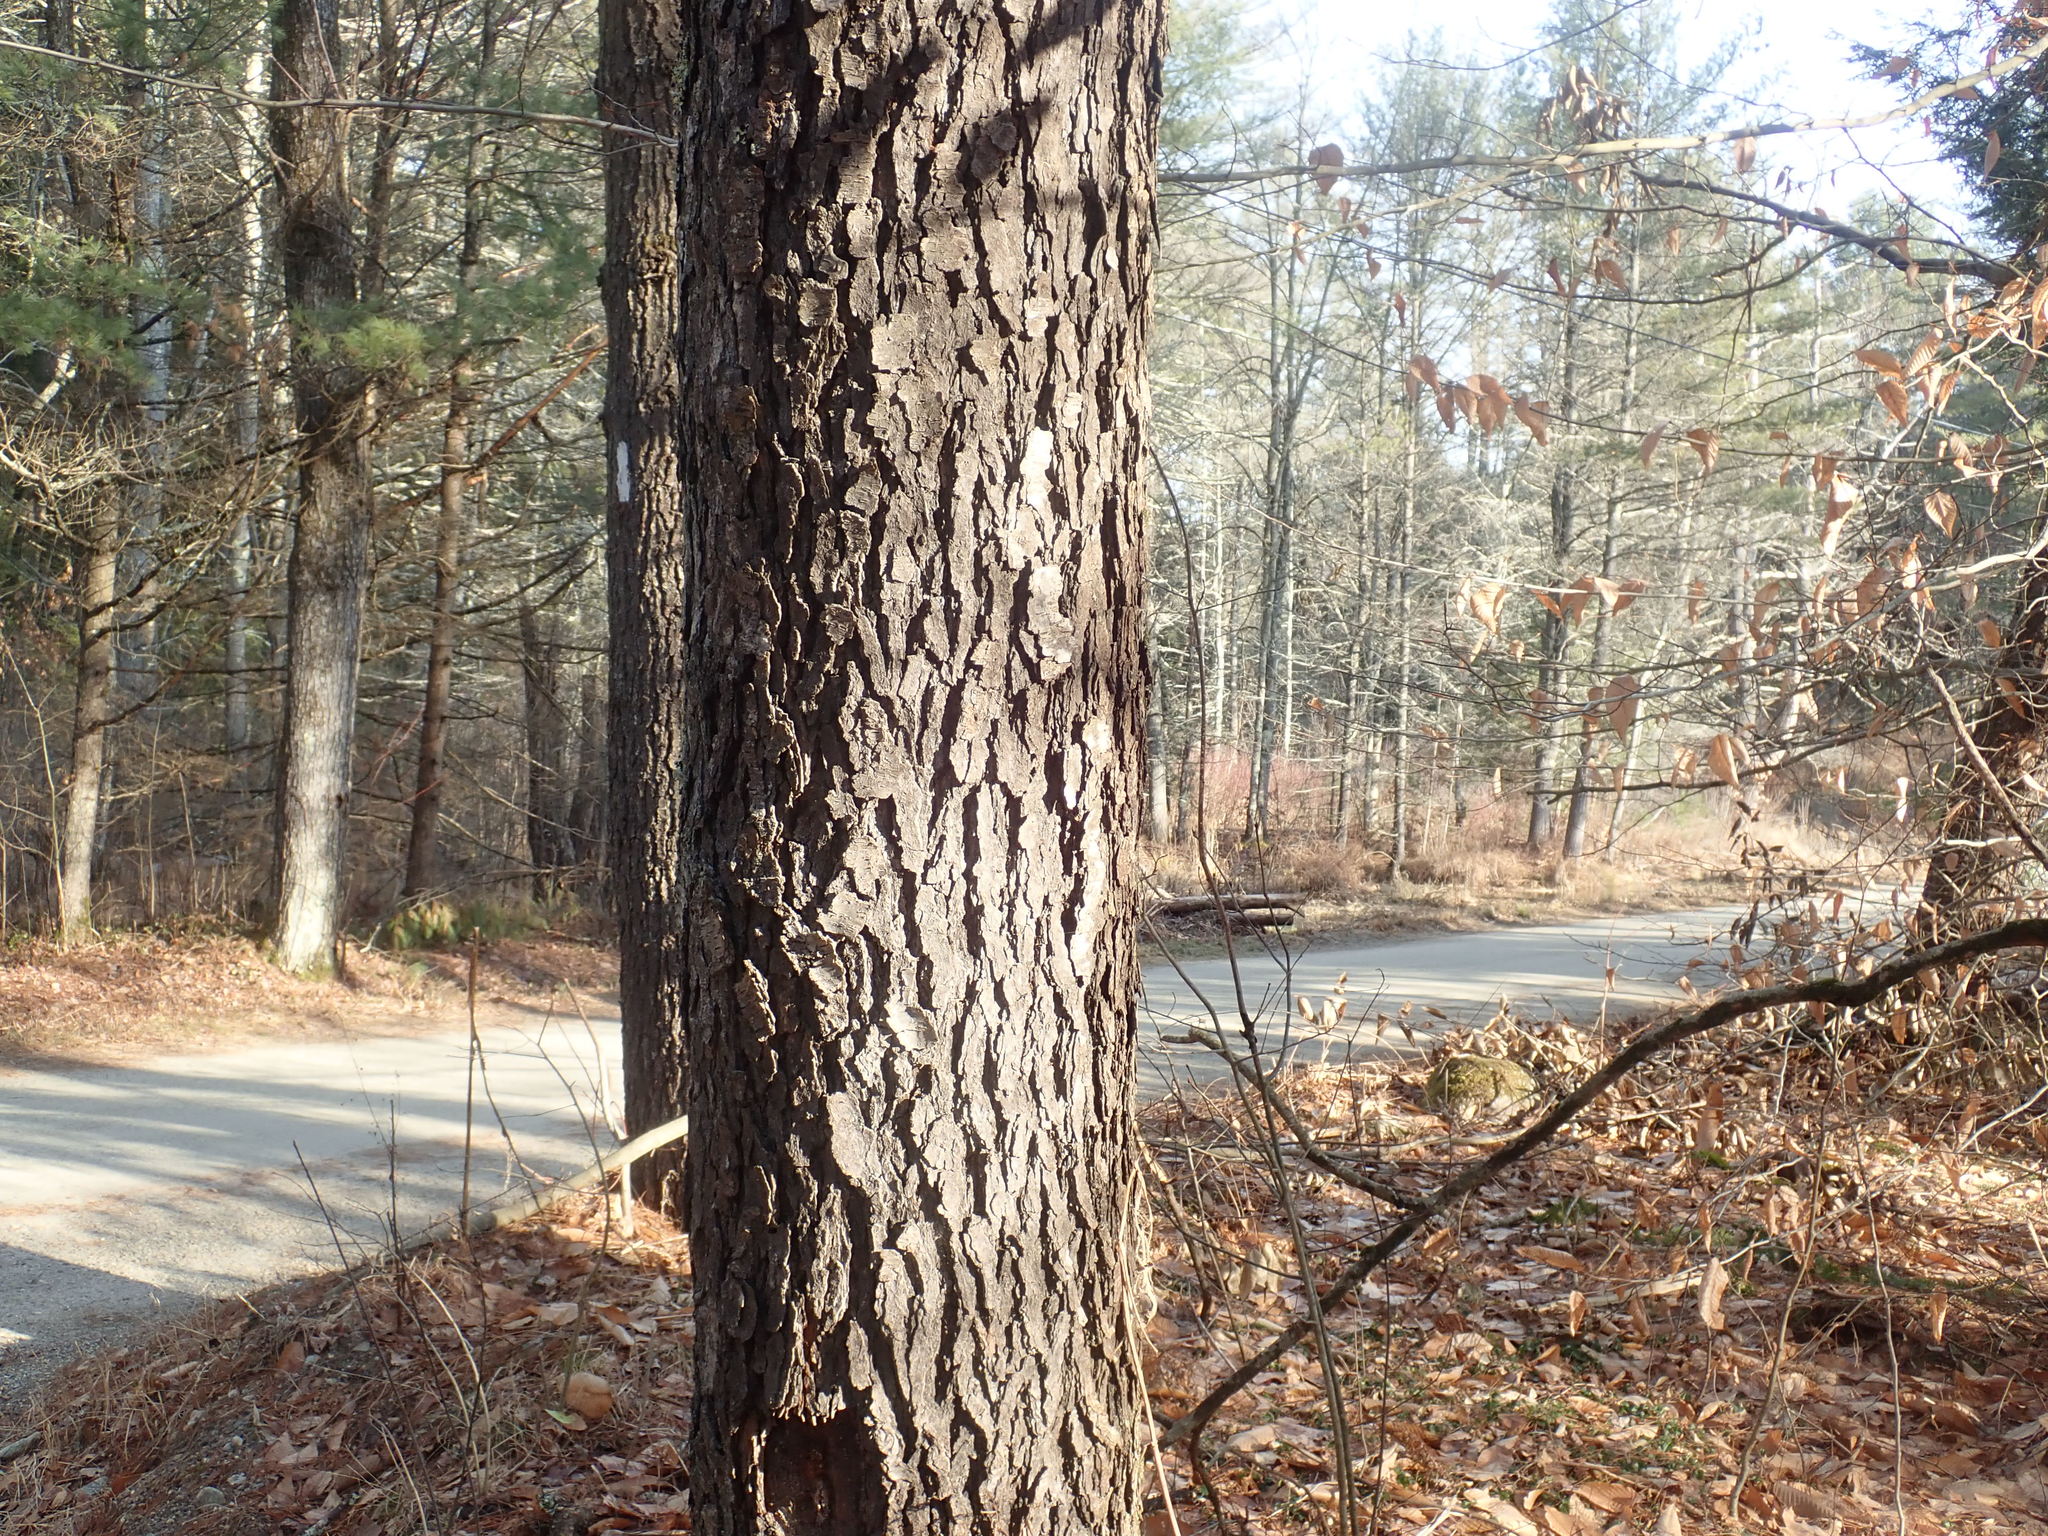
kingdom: Plantae
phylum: Tracheophyta
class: Magnoliopsida
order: Rosales
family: Rosaceae
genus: Prunus
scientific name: Prunus serotina
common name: Black cherry
